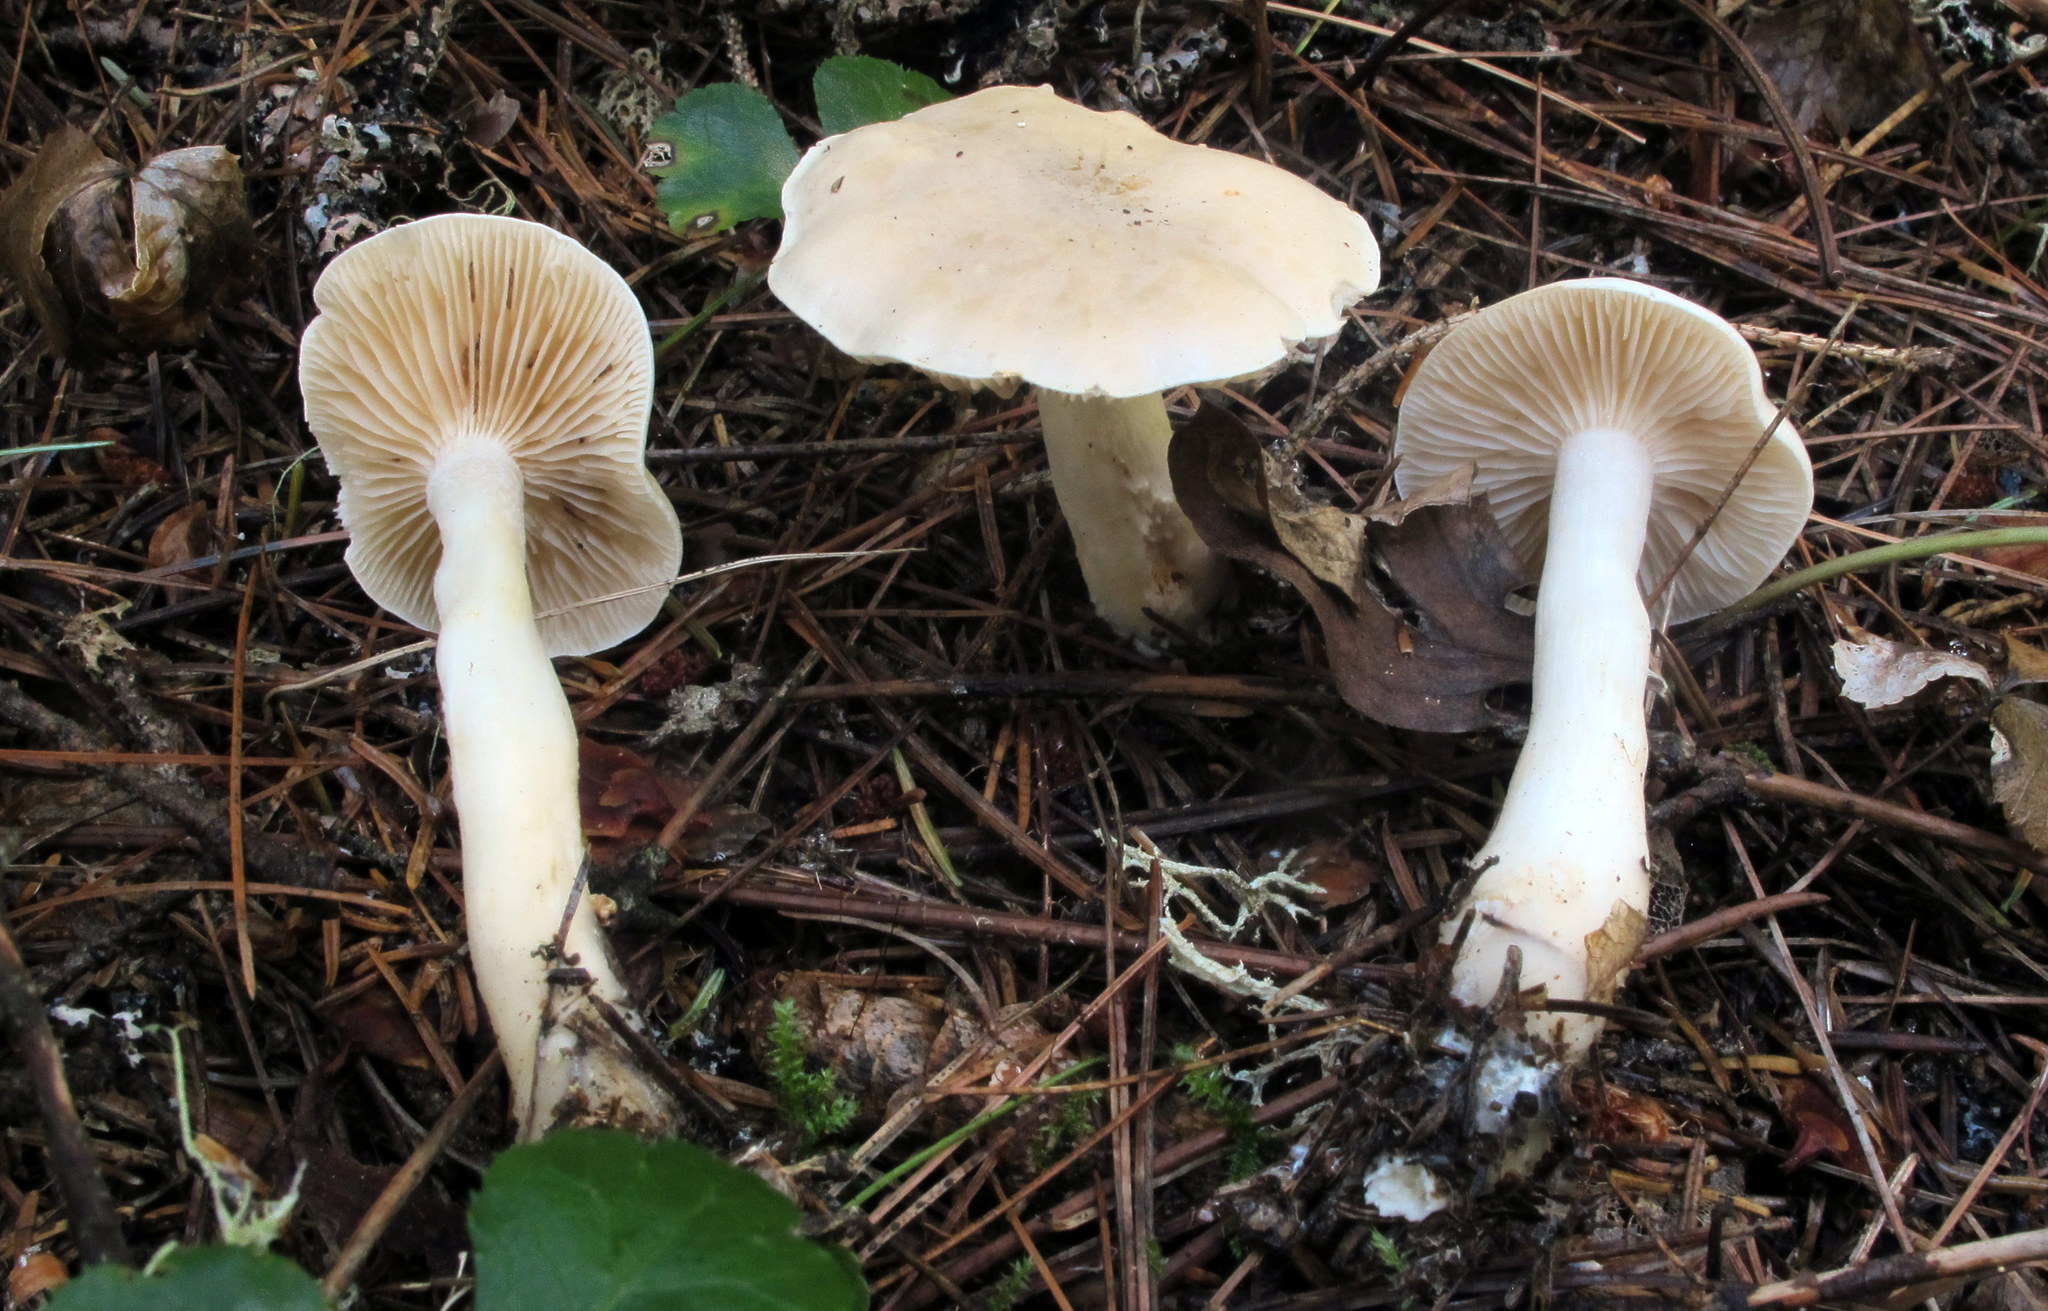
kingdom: Fungi
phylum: Basidiomycota
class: Agaricomycetes
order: Agaricales
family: Tricholomataceae
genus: Tricholoma
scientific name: Tricholoma inamoenum
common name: Gassy knight
